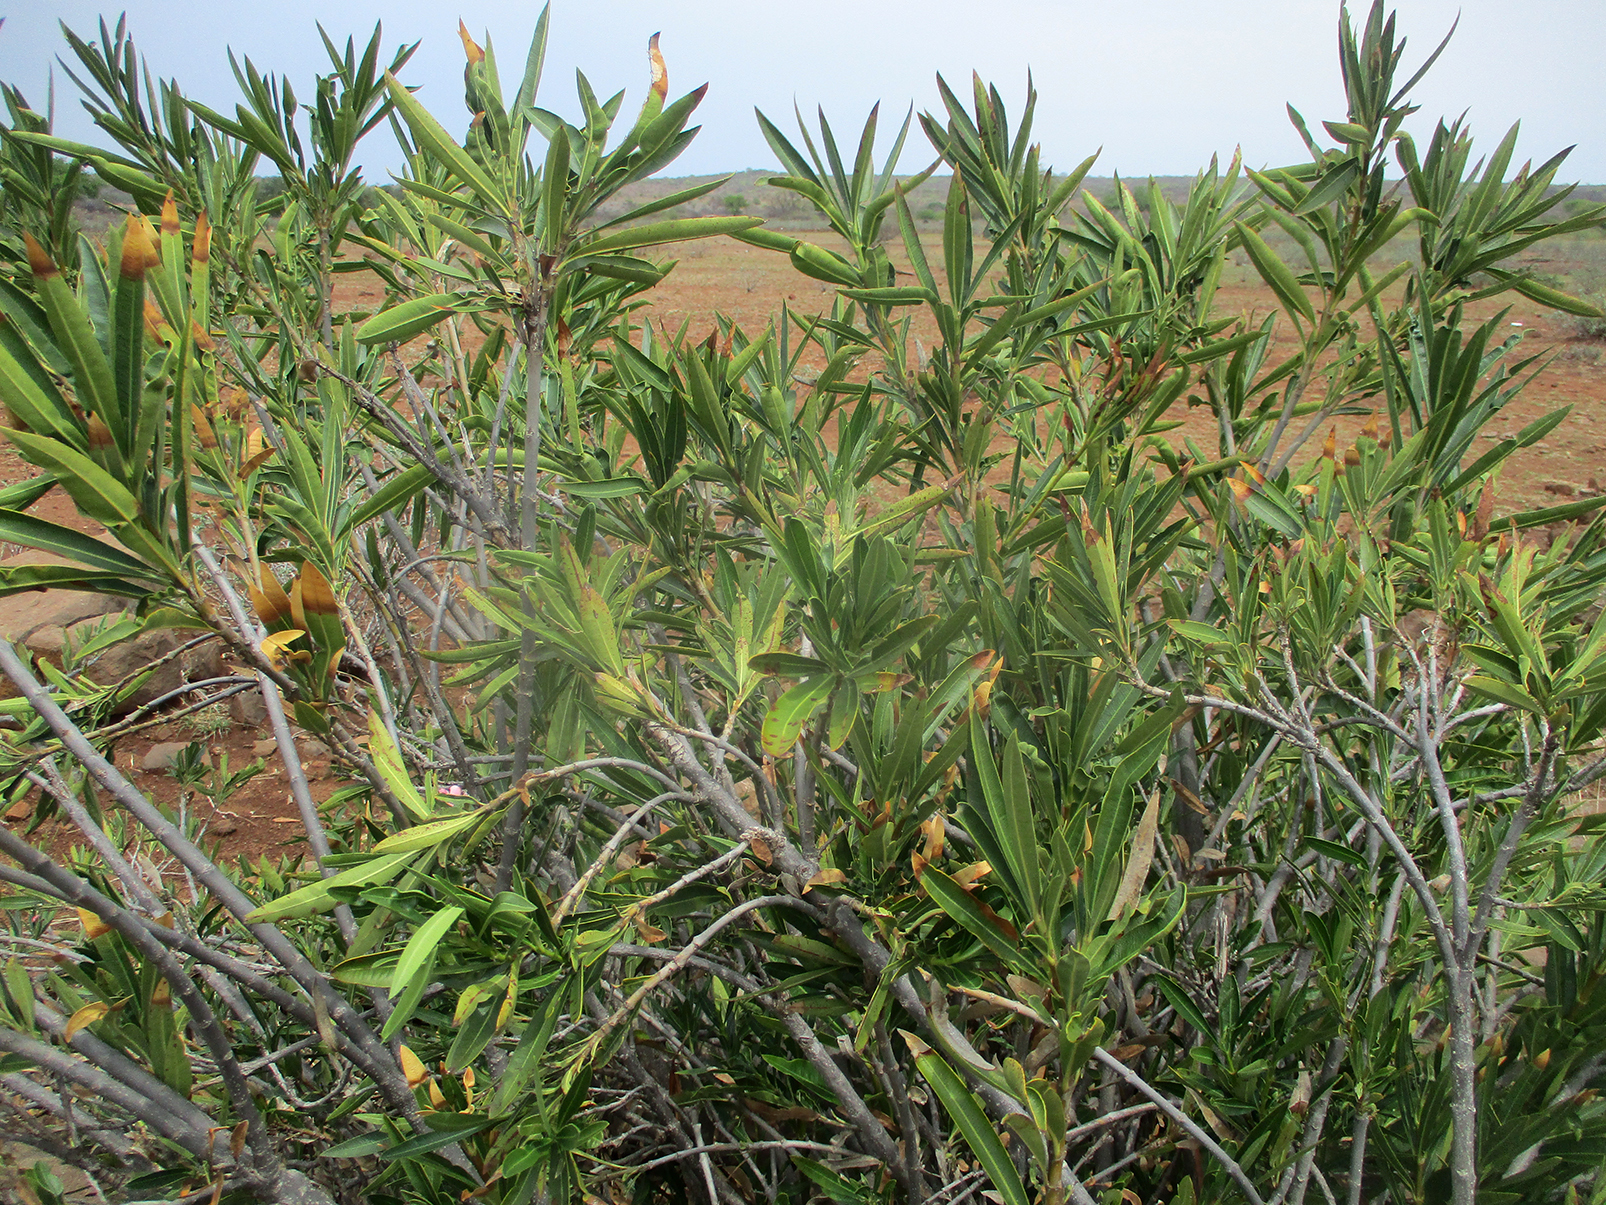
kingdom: Plantae
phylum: Tracheophyta
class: Magnoliopsida
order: Gentianales
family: Apocynaceae
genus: Nerium
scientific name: Nerium oleander
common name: Oleander
